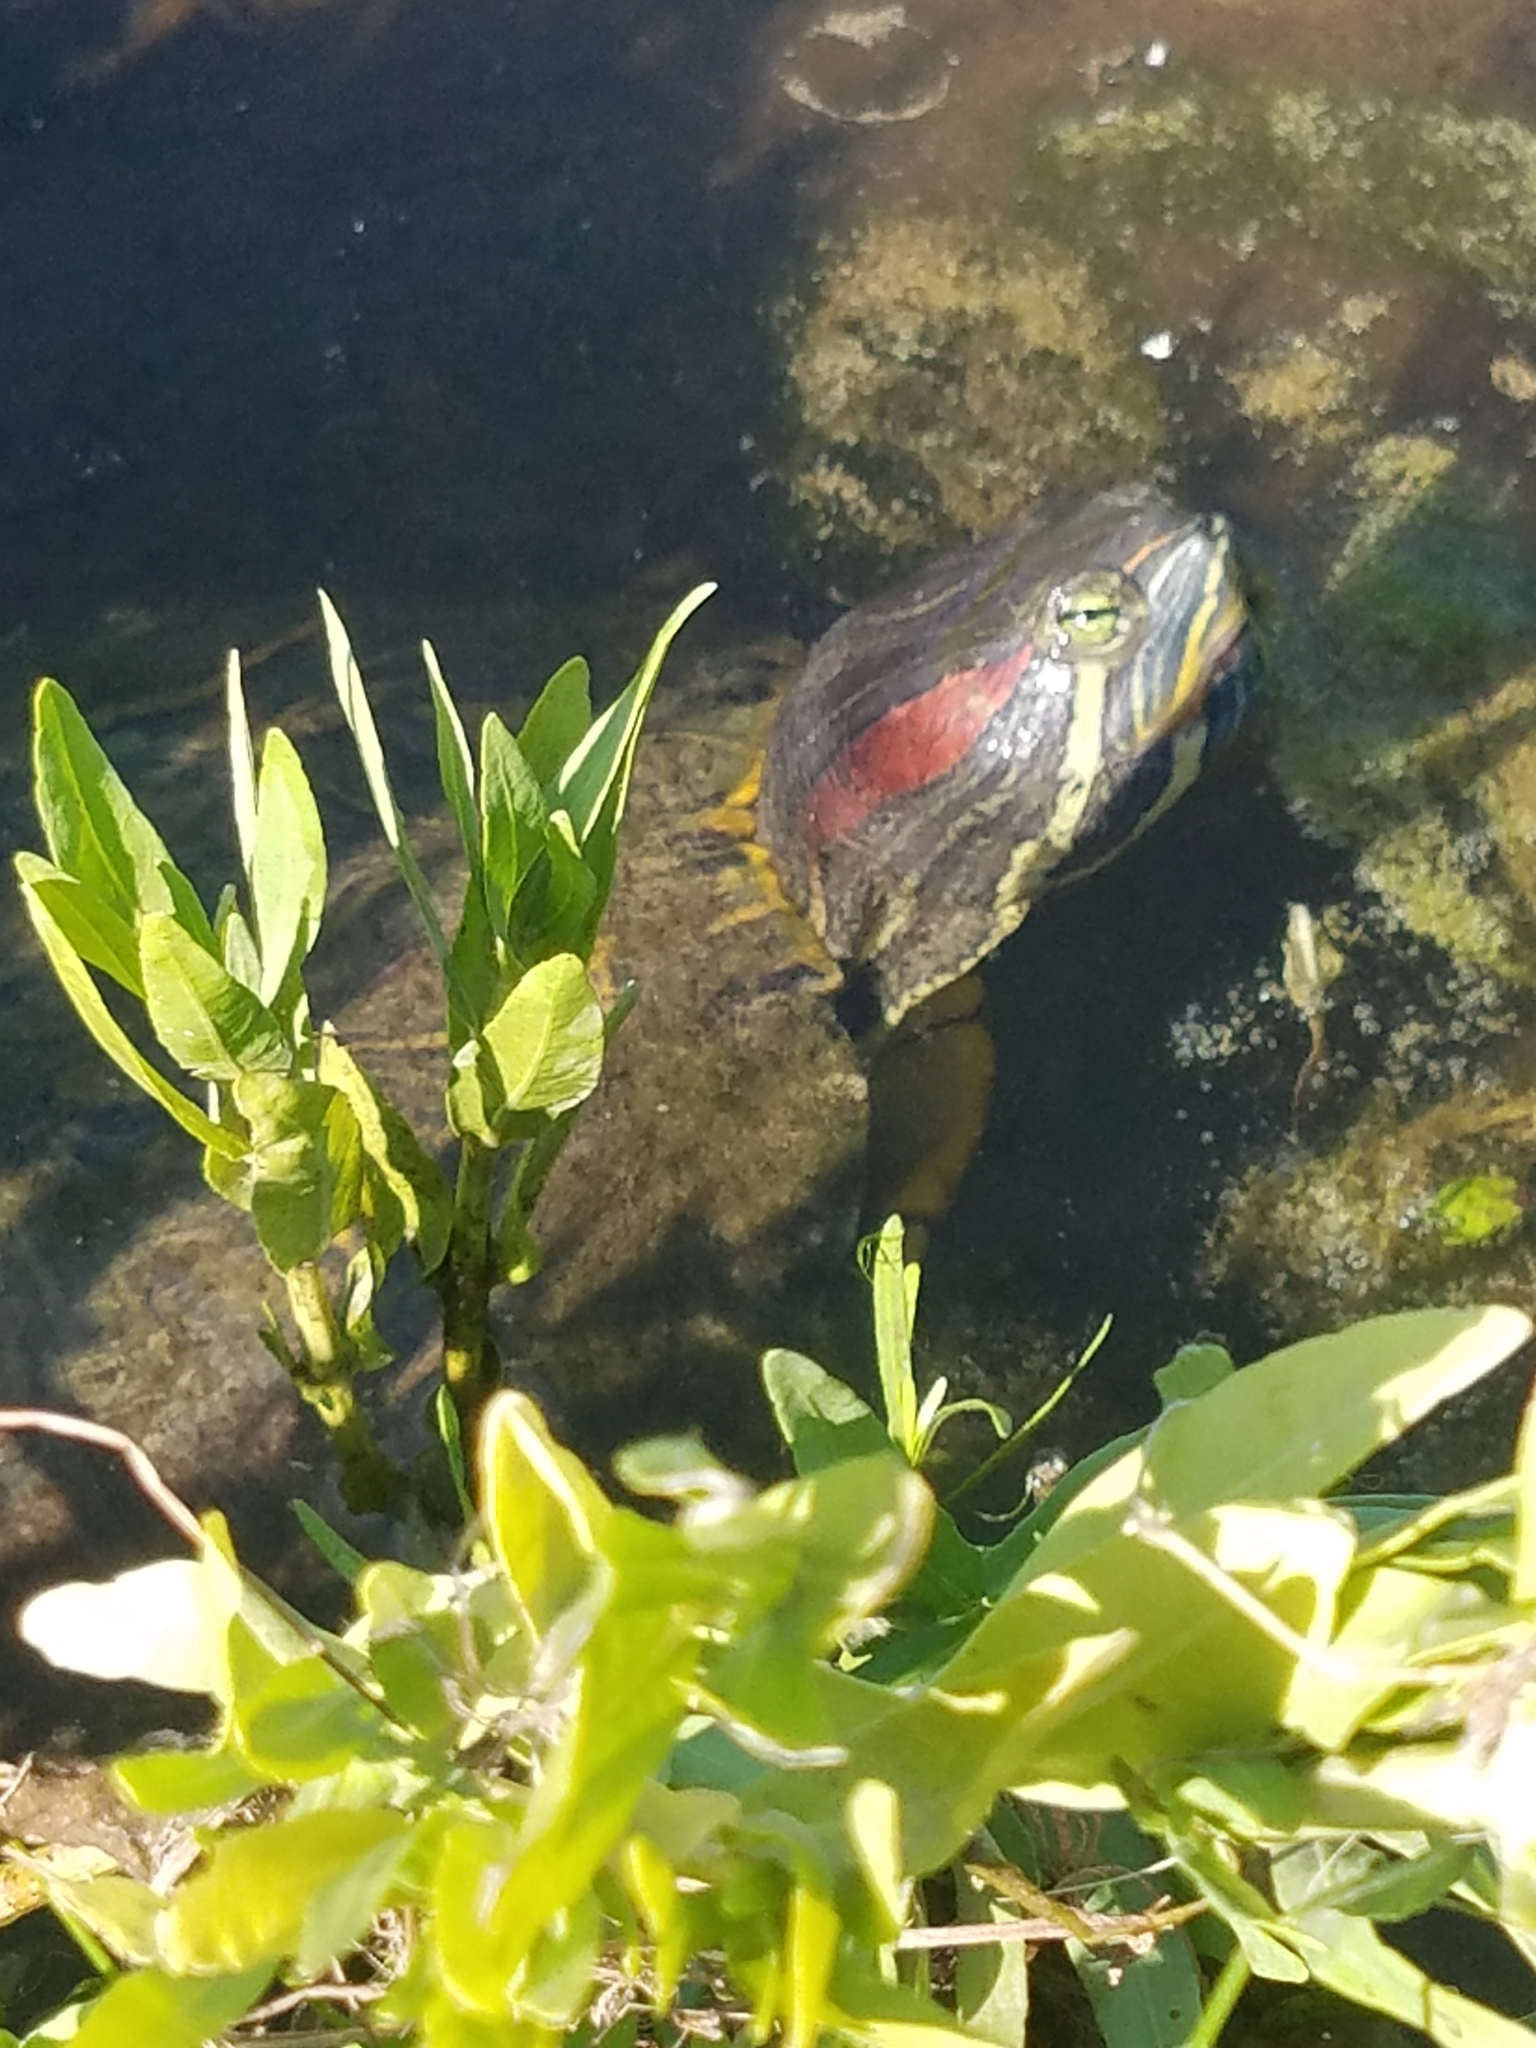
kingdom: Animalia
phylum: Chordata
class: Testudines
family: Emydidae
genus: Trachemys
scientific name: Trachemys scripta
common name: Slider
